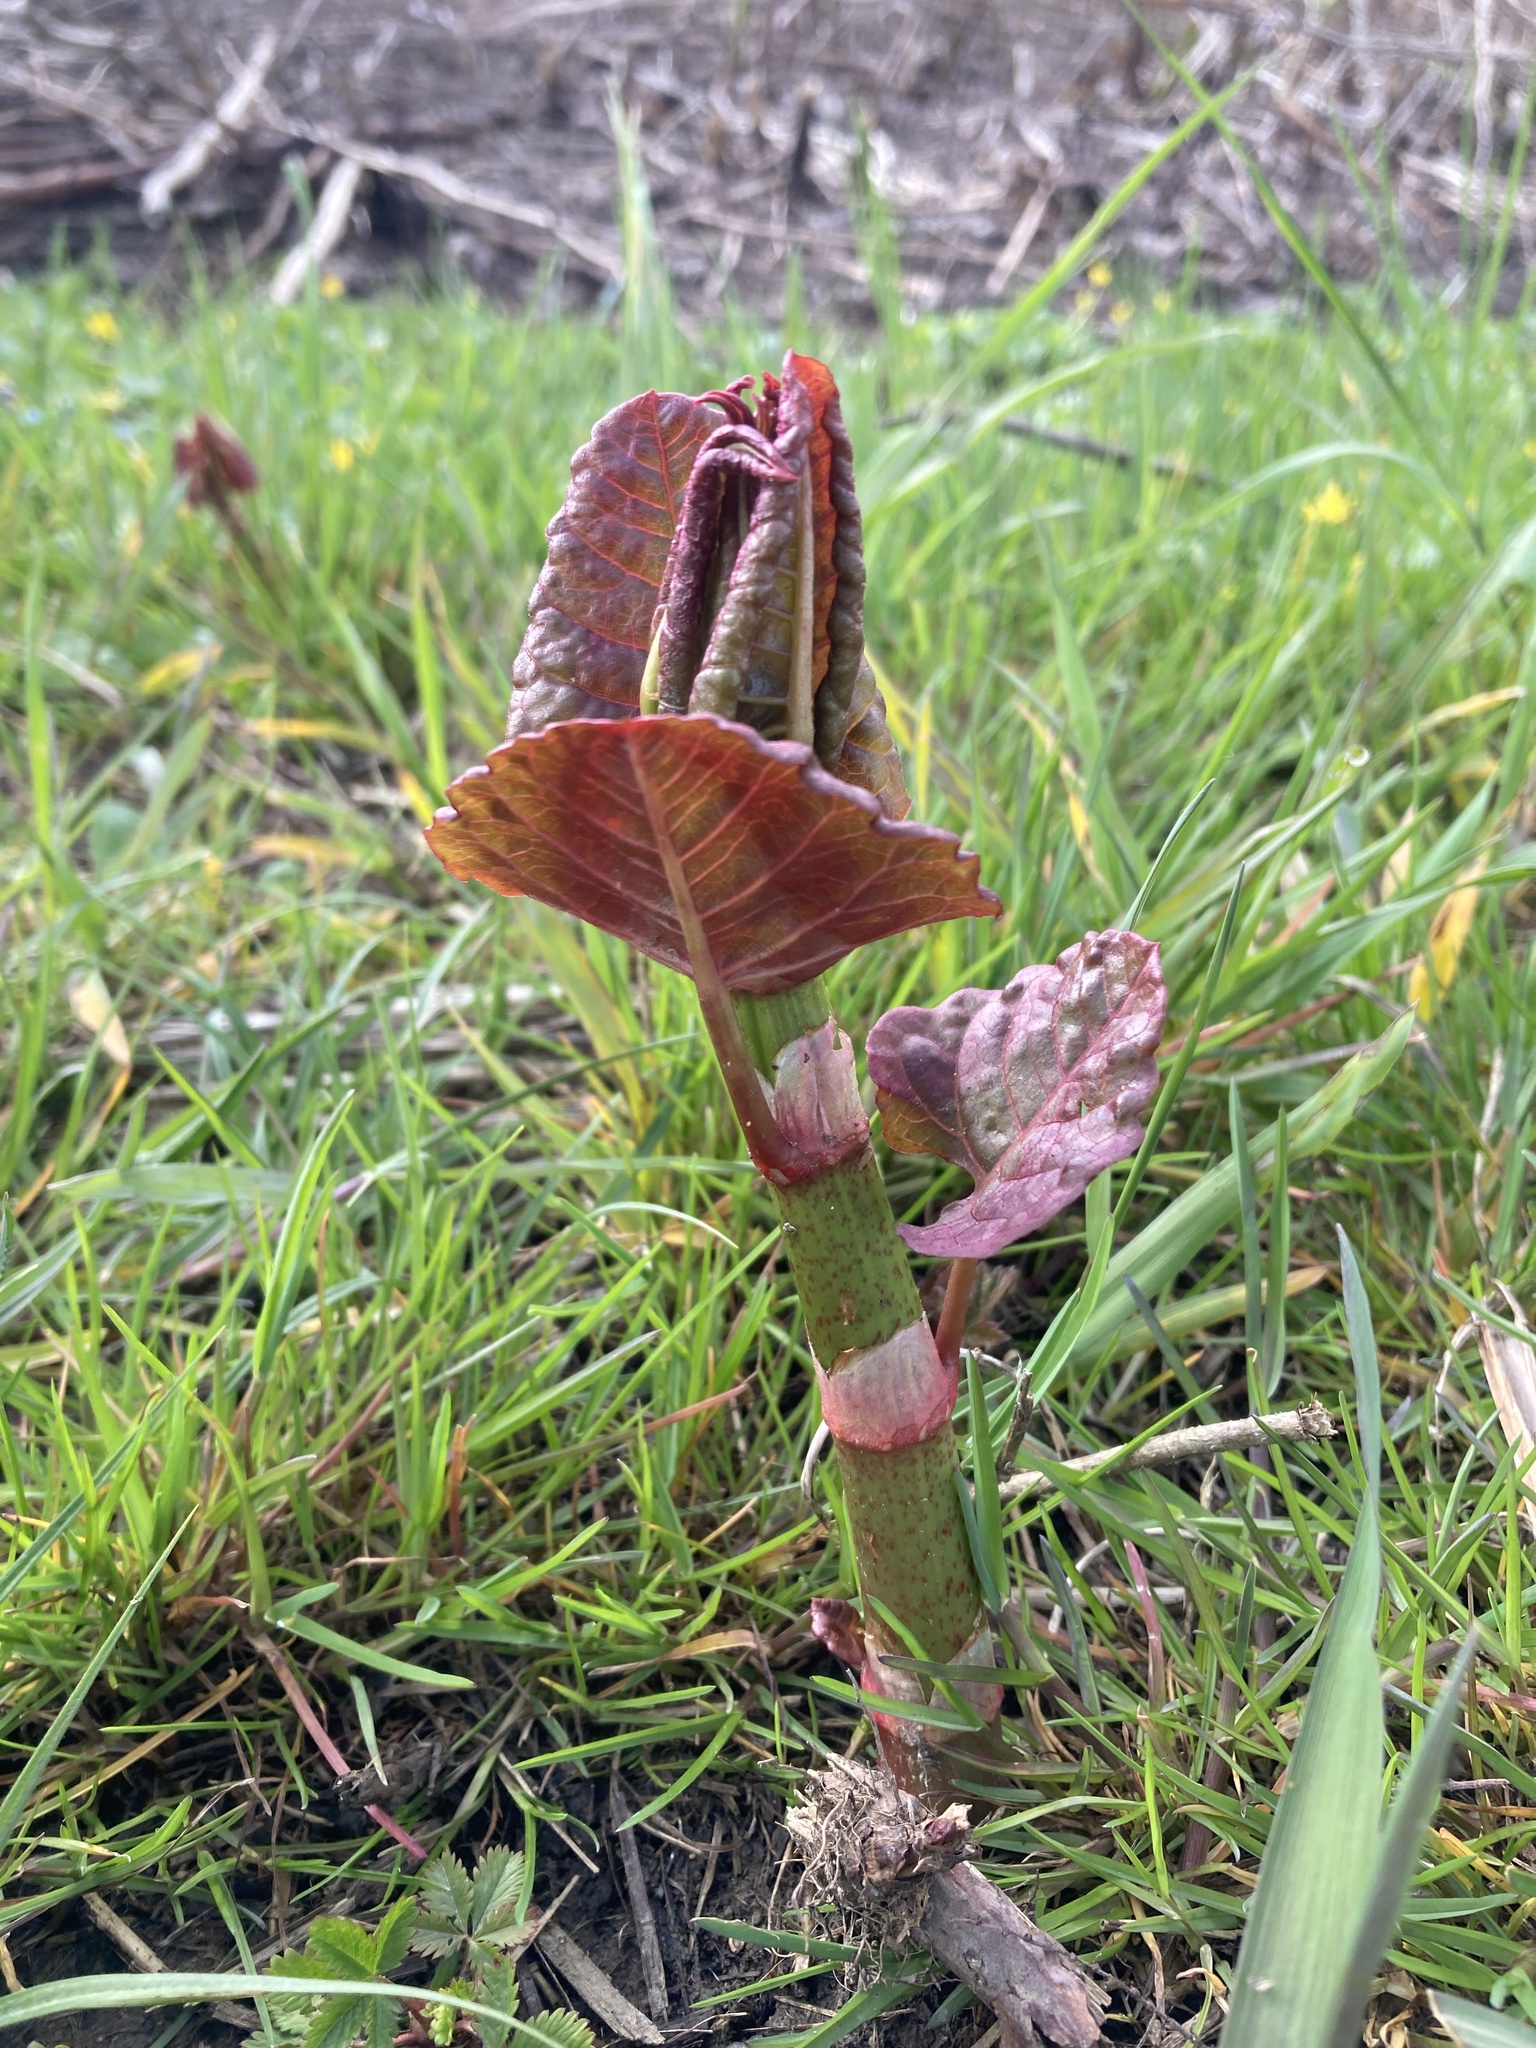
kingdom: Plantae
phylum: Tracheophyta
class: Magnoliopsida
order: Caryophyllales
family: Polygonaceae
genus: Reynoutria
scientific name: Reynoutria
